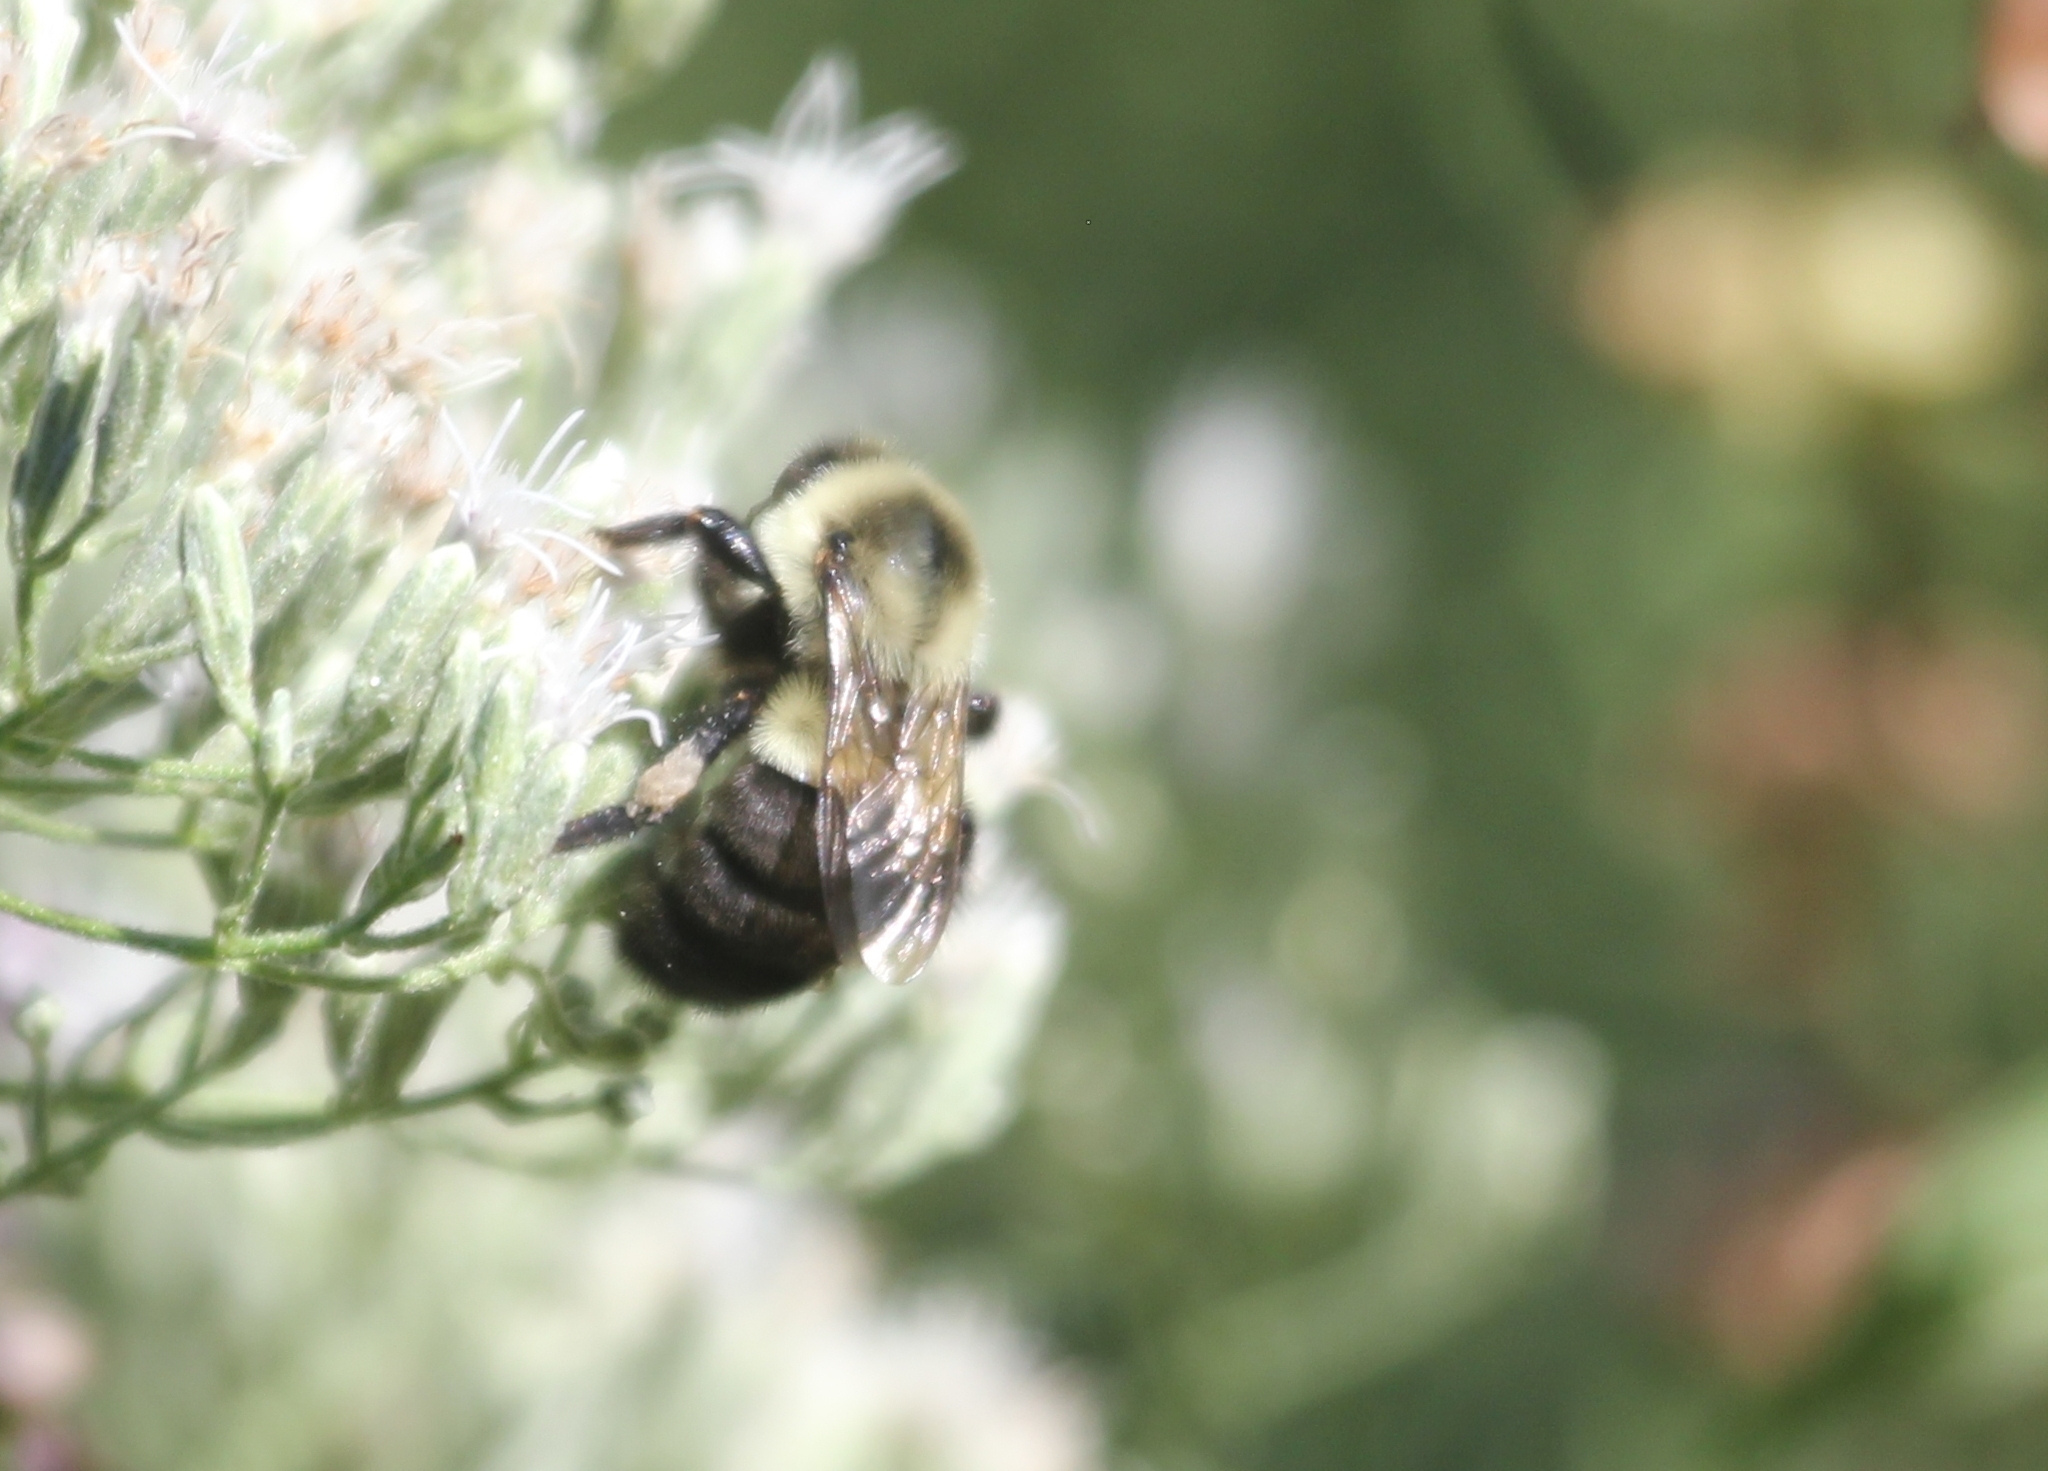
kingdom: Animalia
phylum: Arthropoda
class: Insecta
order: Hymenoptera
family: Apidae
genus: Bombus
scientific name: Bombus impatiens
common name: Common eastern bumble bee
